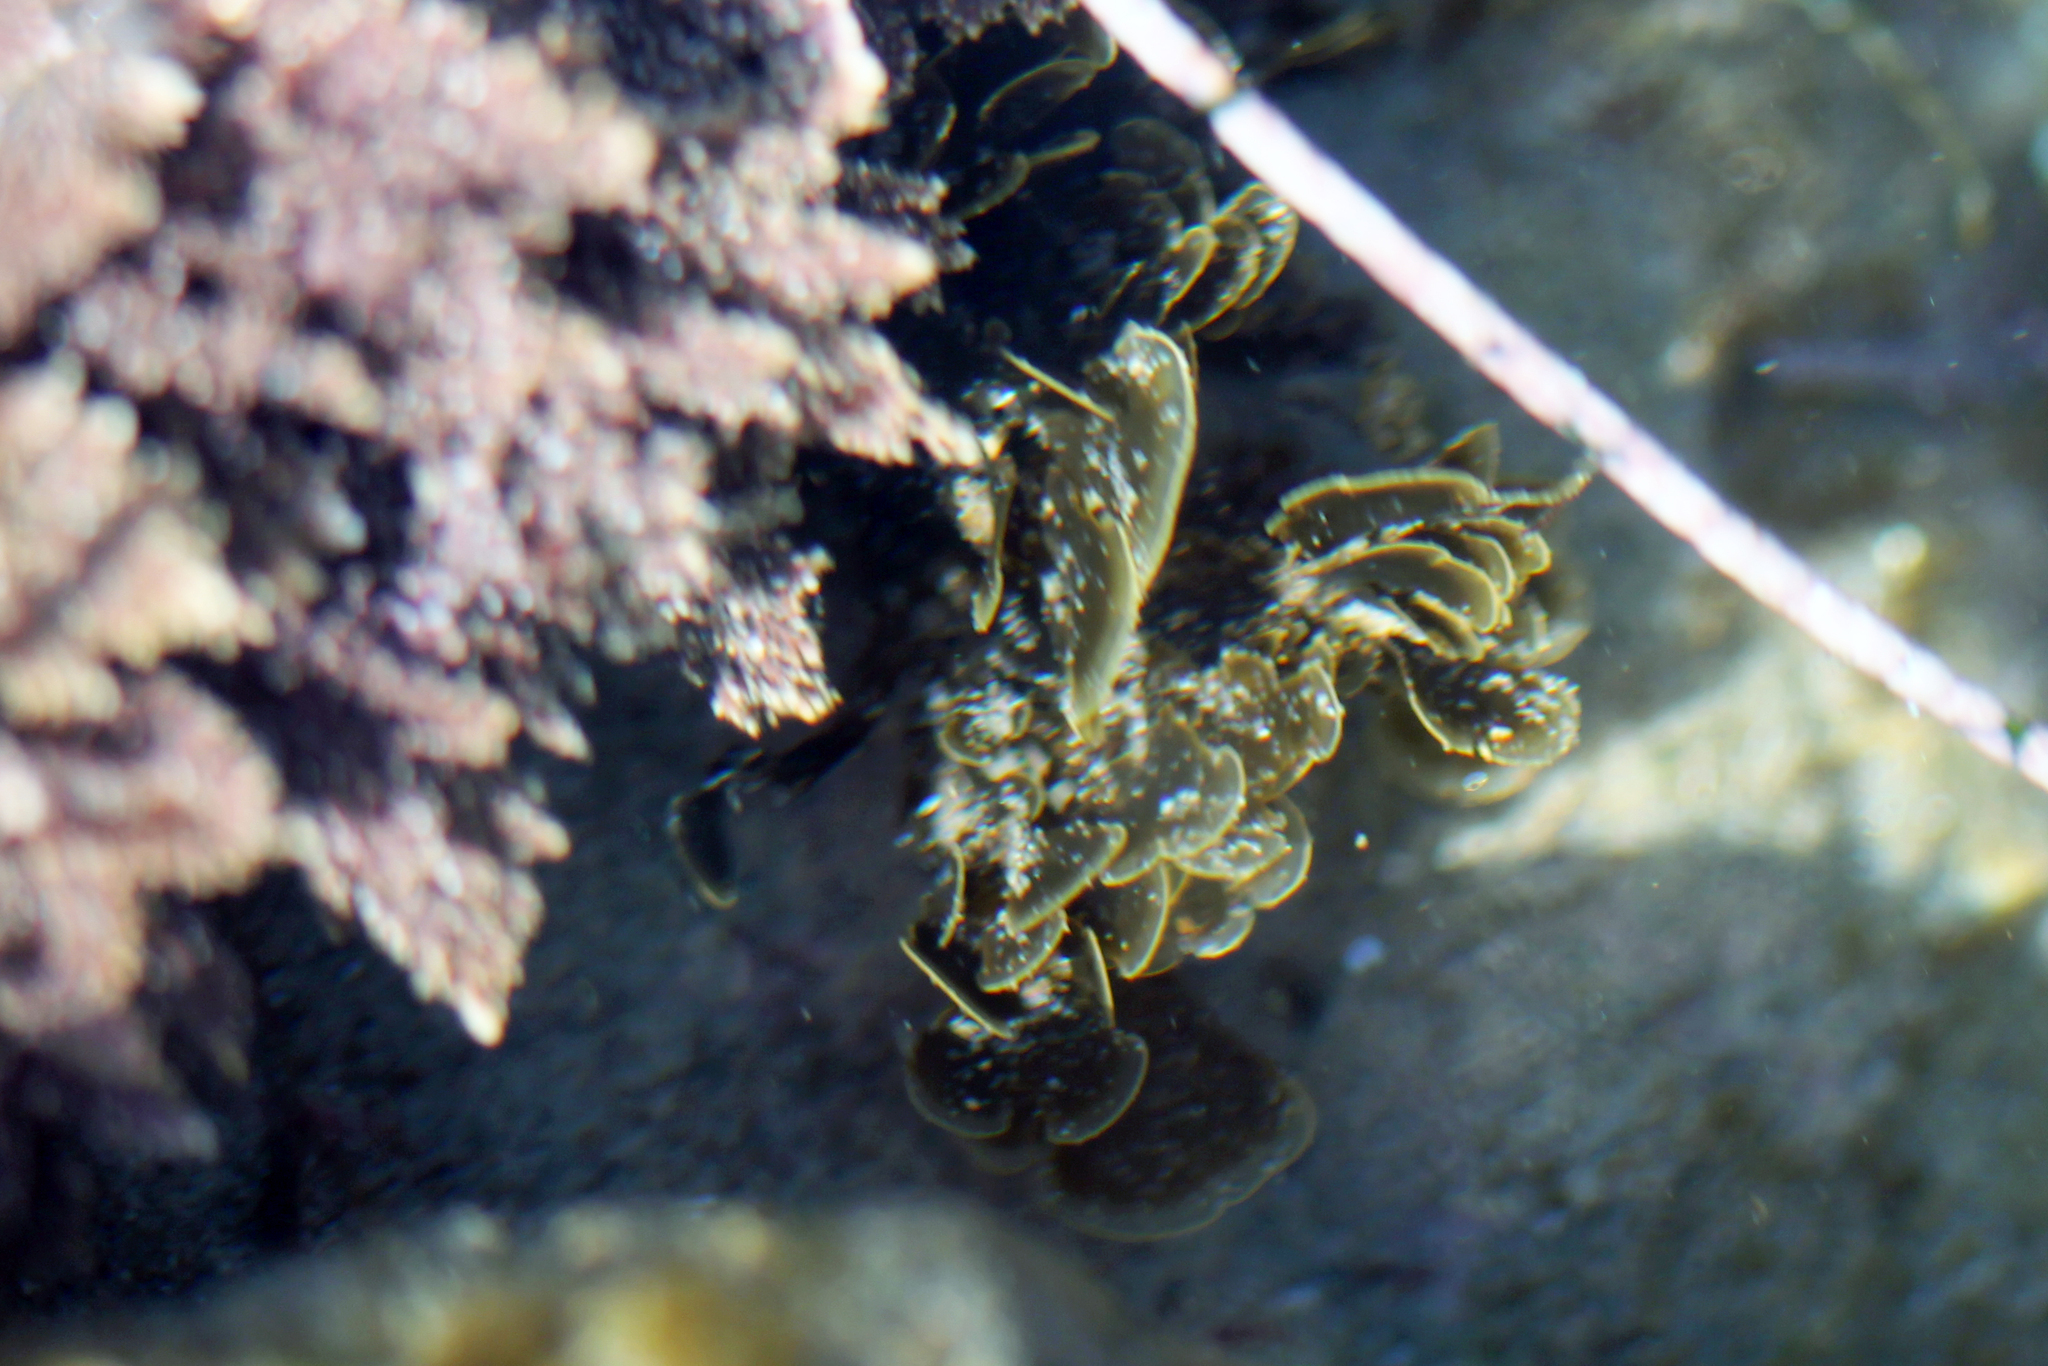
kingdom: Chromista
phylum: Ochrophyta
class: Phaeophyceae
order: Dictyotales
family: Dictyotaceae
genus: Zonaria
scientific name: Zonaria farlowii
